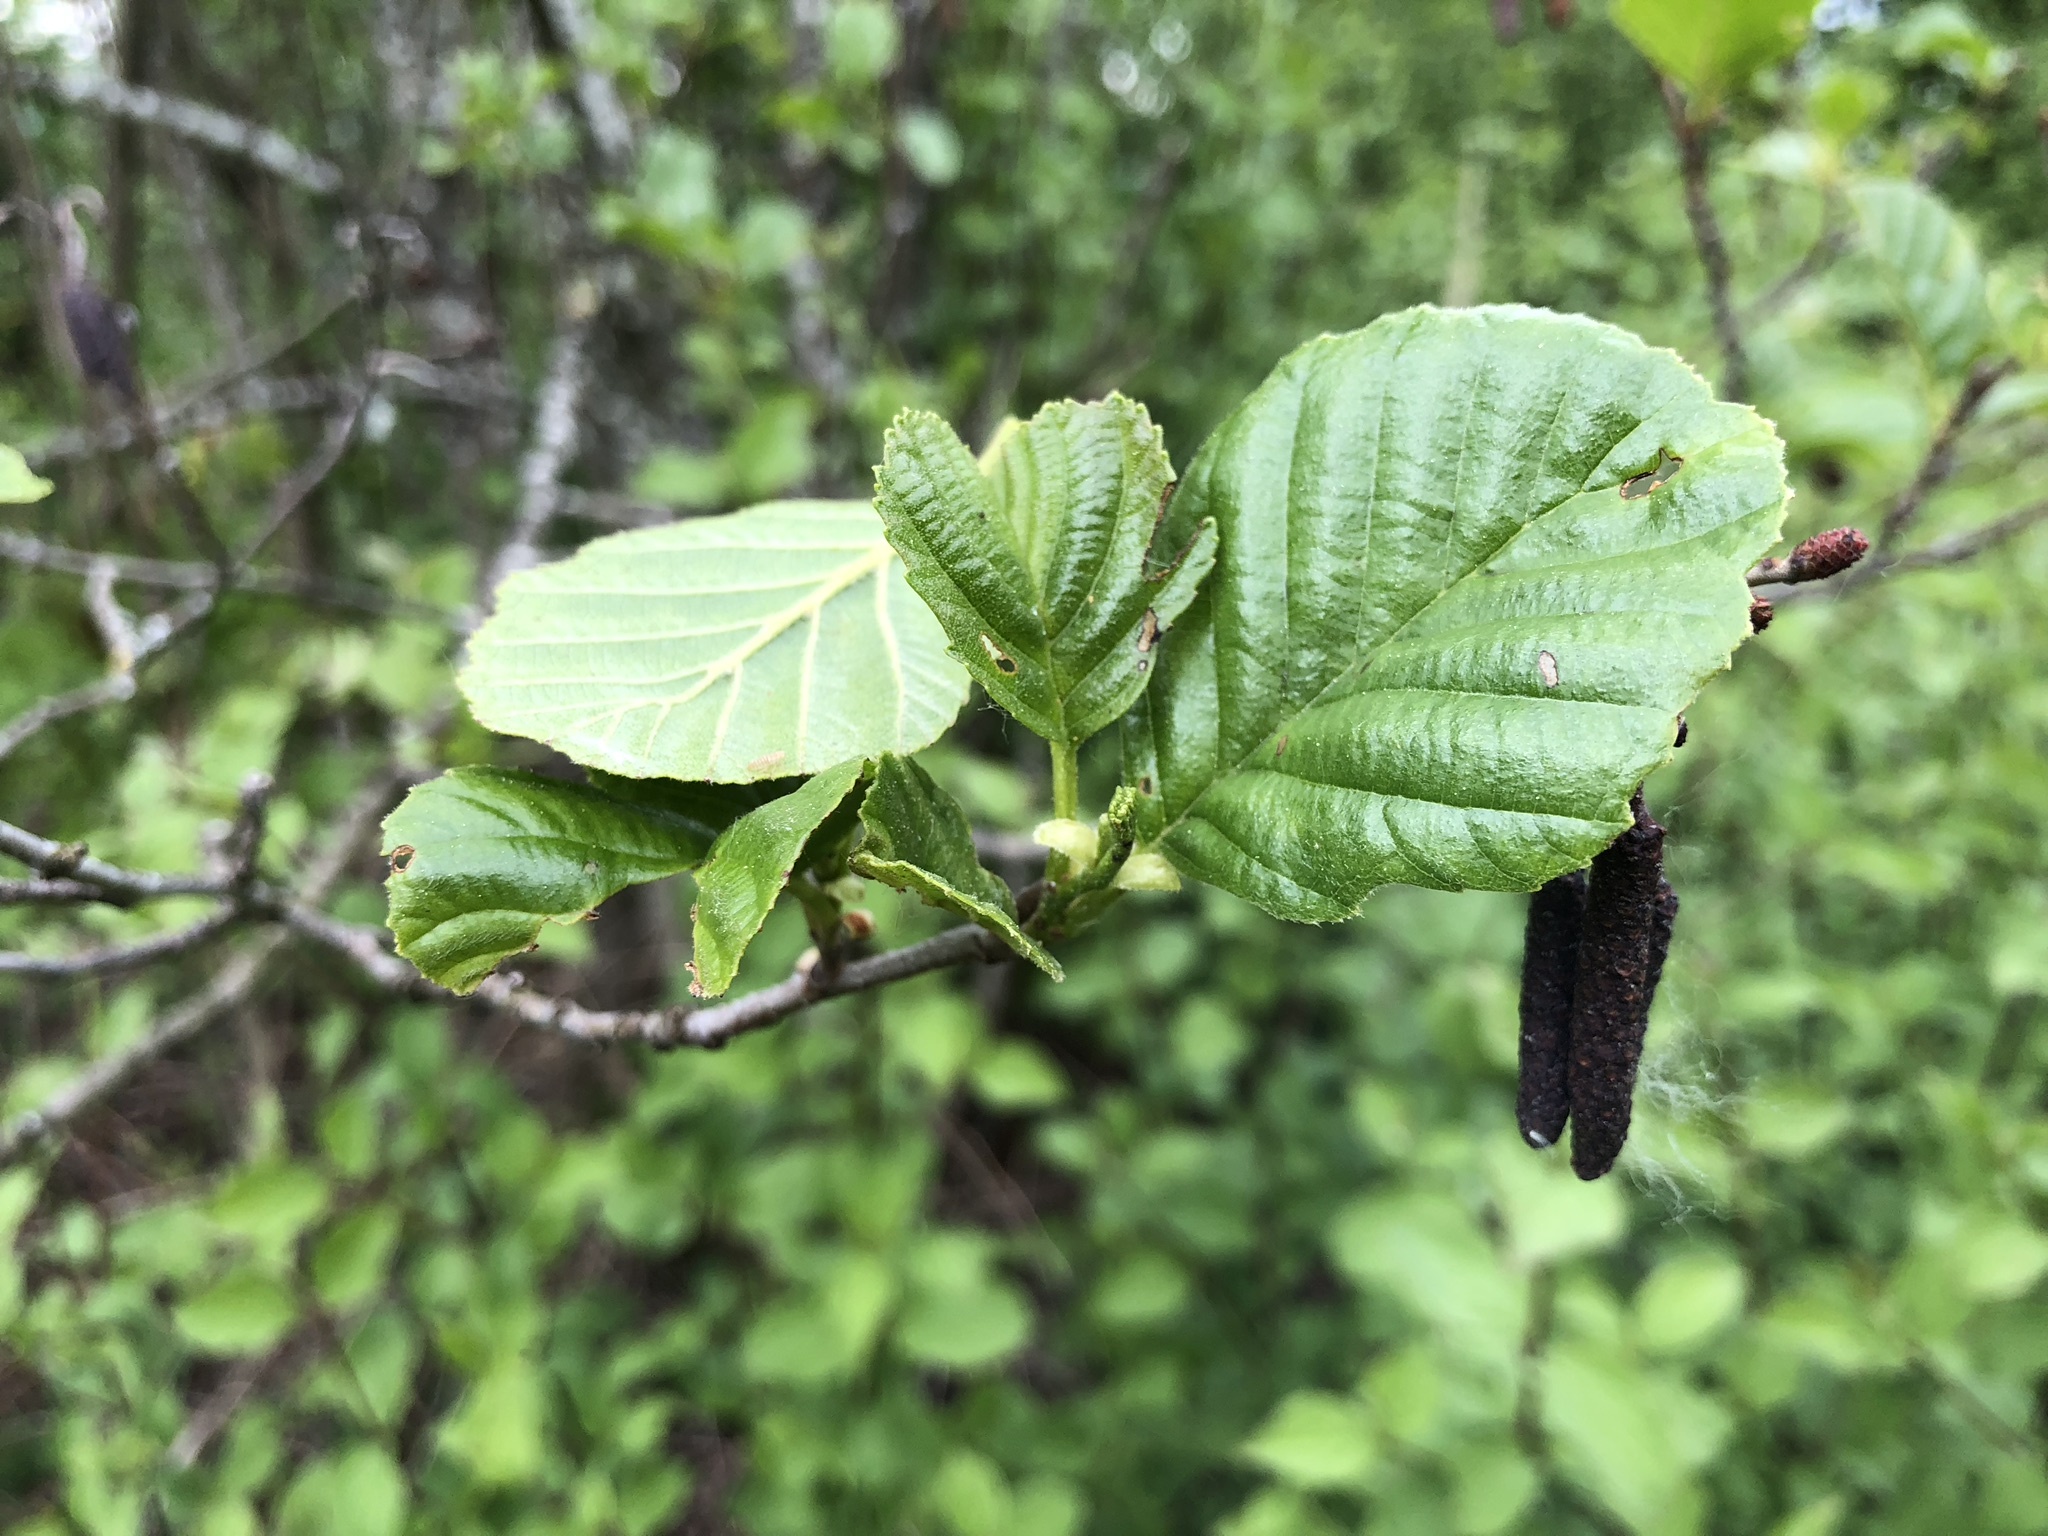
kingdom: Plantae
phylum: Tracheophyta
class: Magnoliopsida
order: Fagales
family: Betulaceae
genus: Alnus
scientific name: Alnus glutinosa
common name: Black alder
